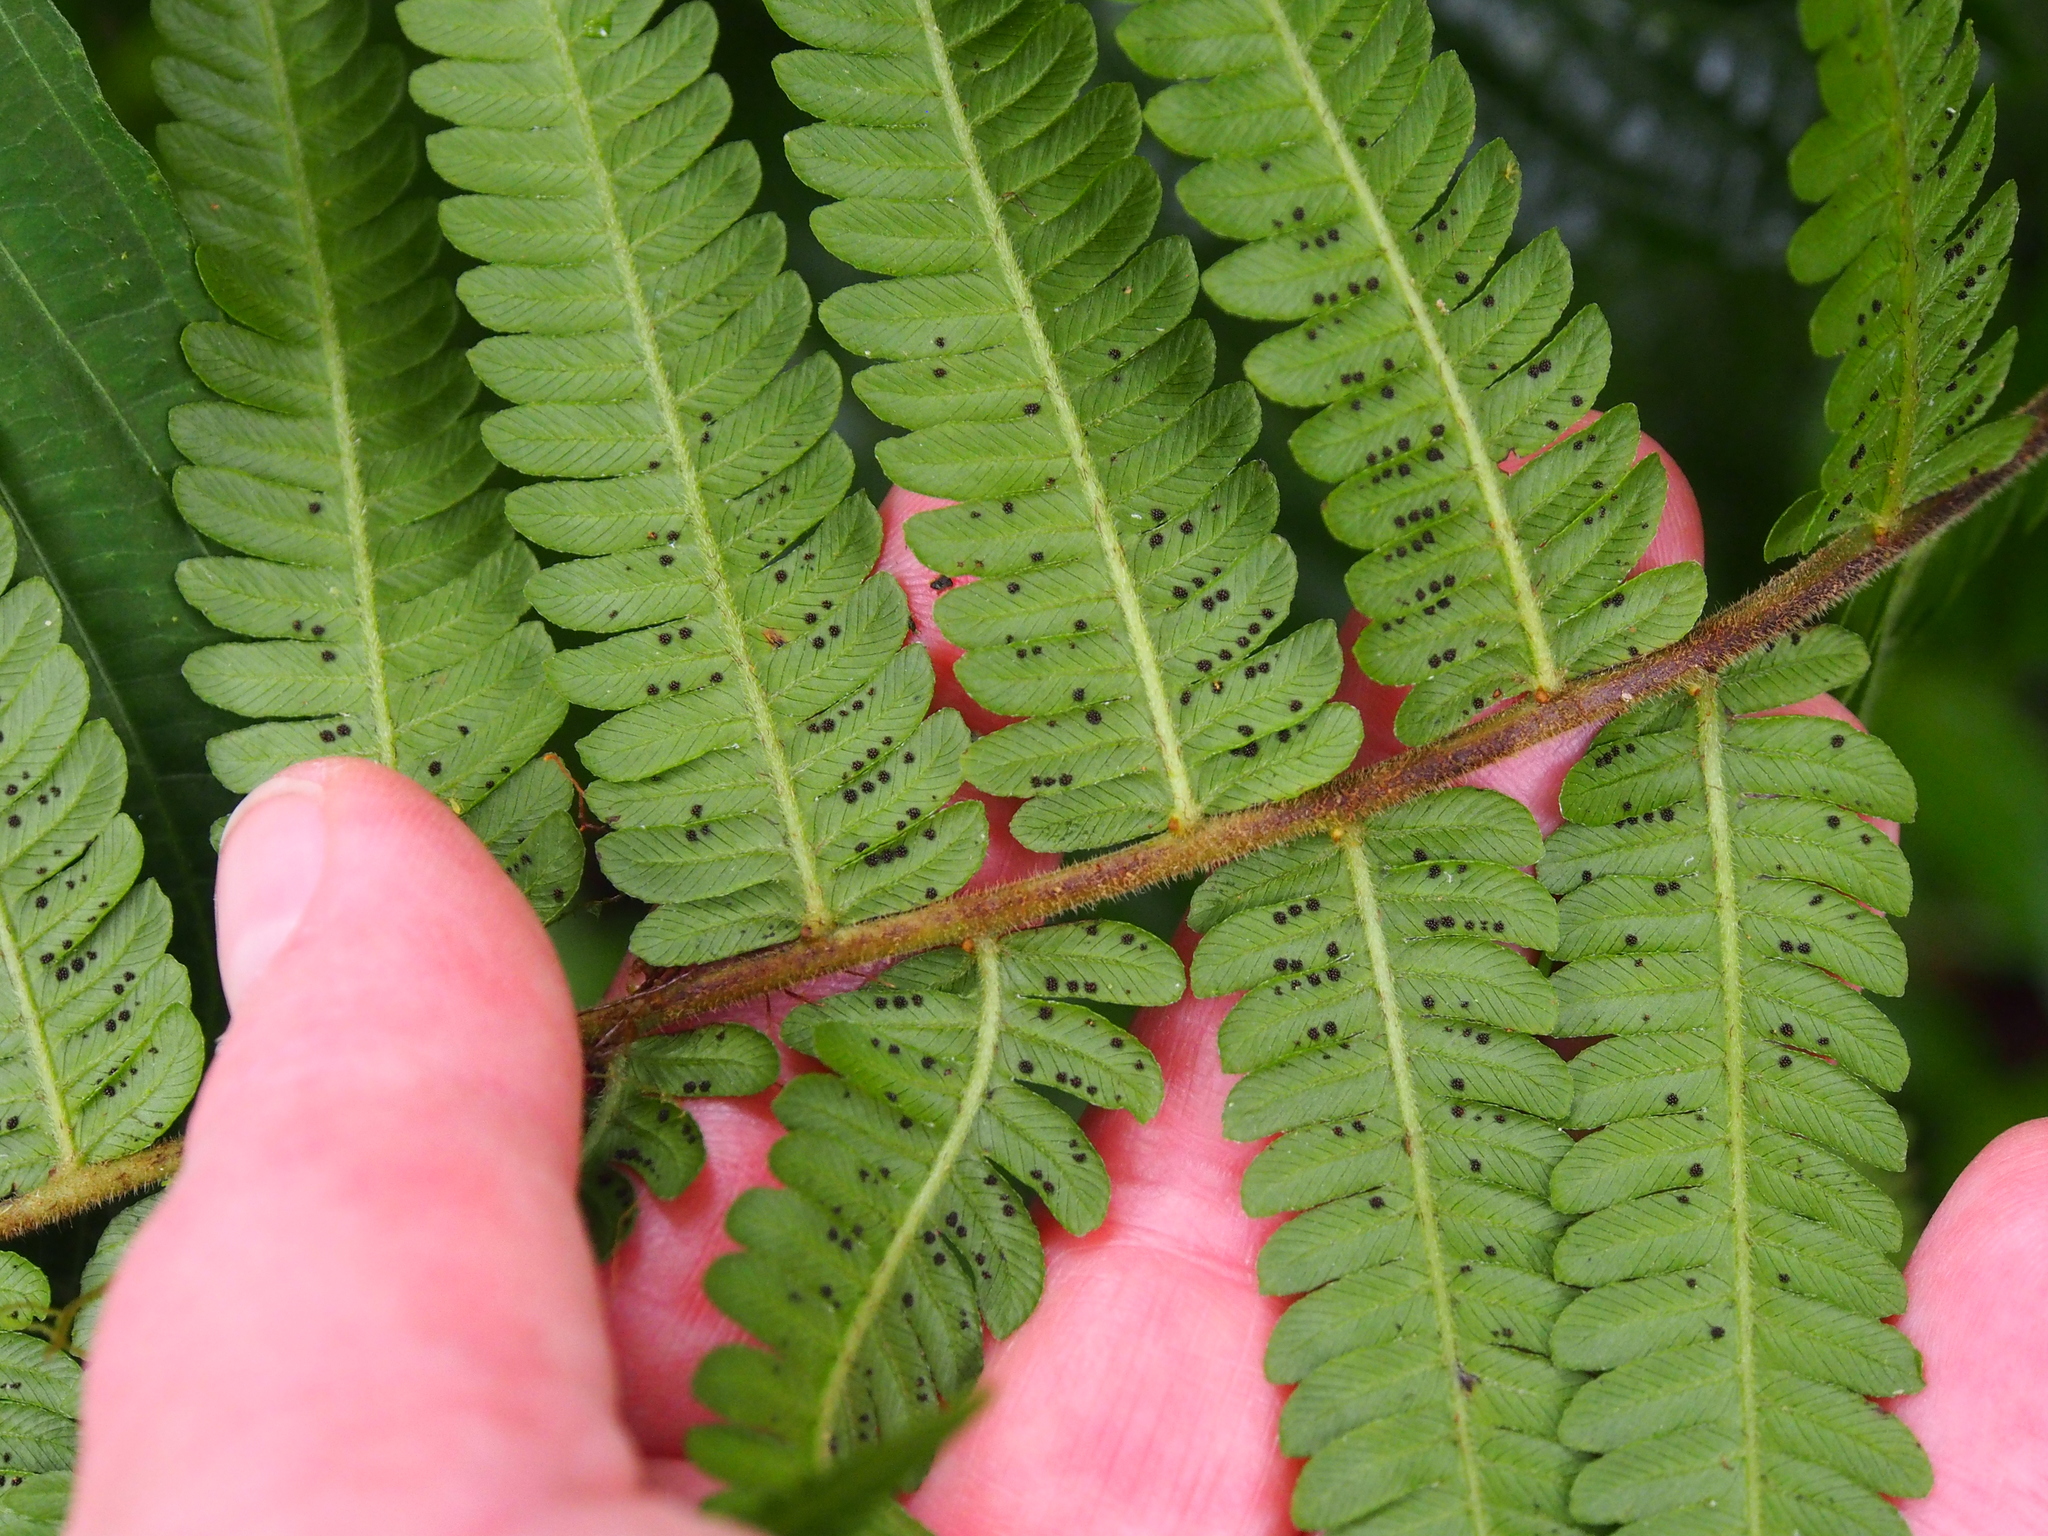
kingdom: Plantae
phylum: Tracheophyta
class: Polypodiopsida
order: Polypodiales
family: Thelypteridaceae
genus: Steiropteris
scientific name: Steiropteris decussata
